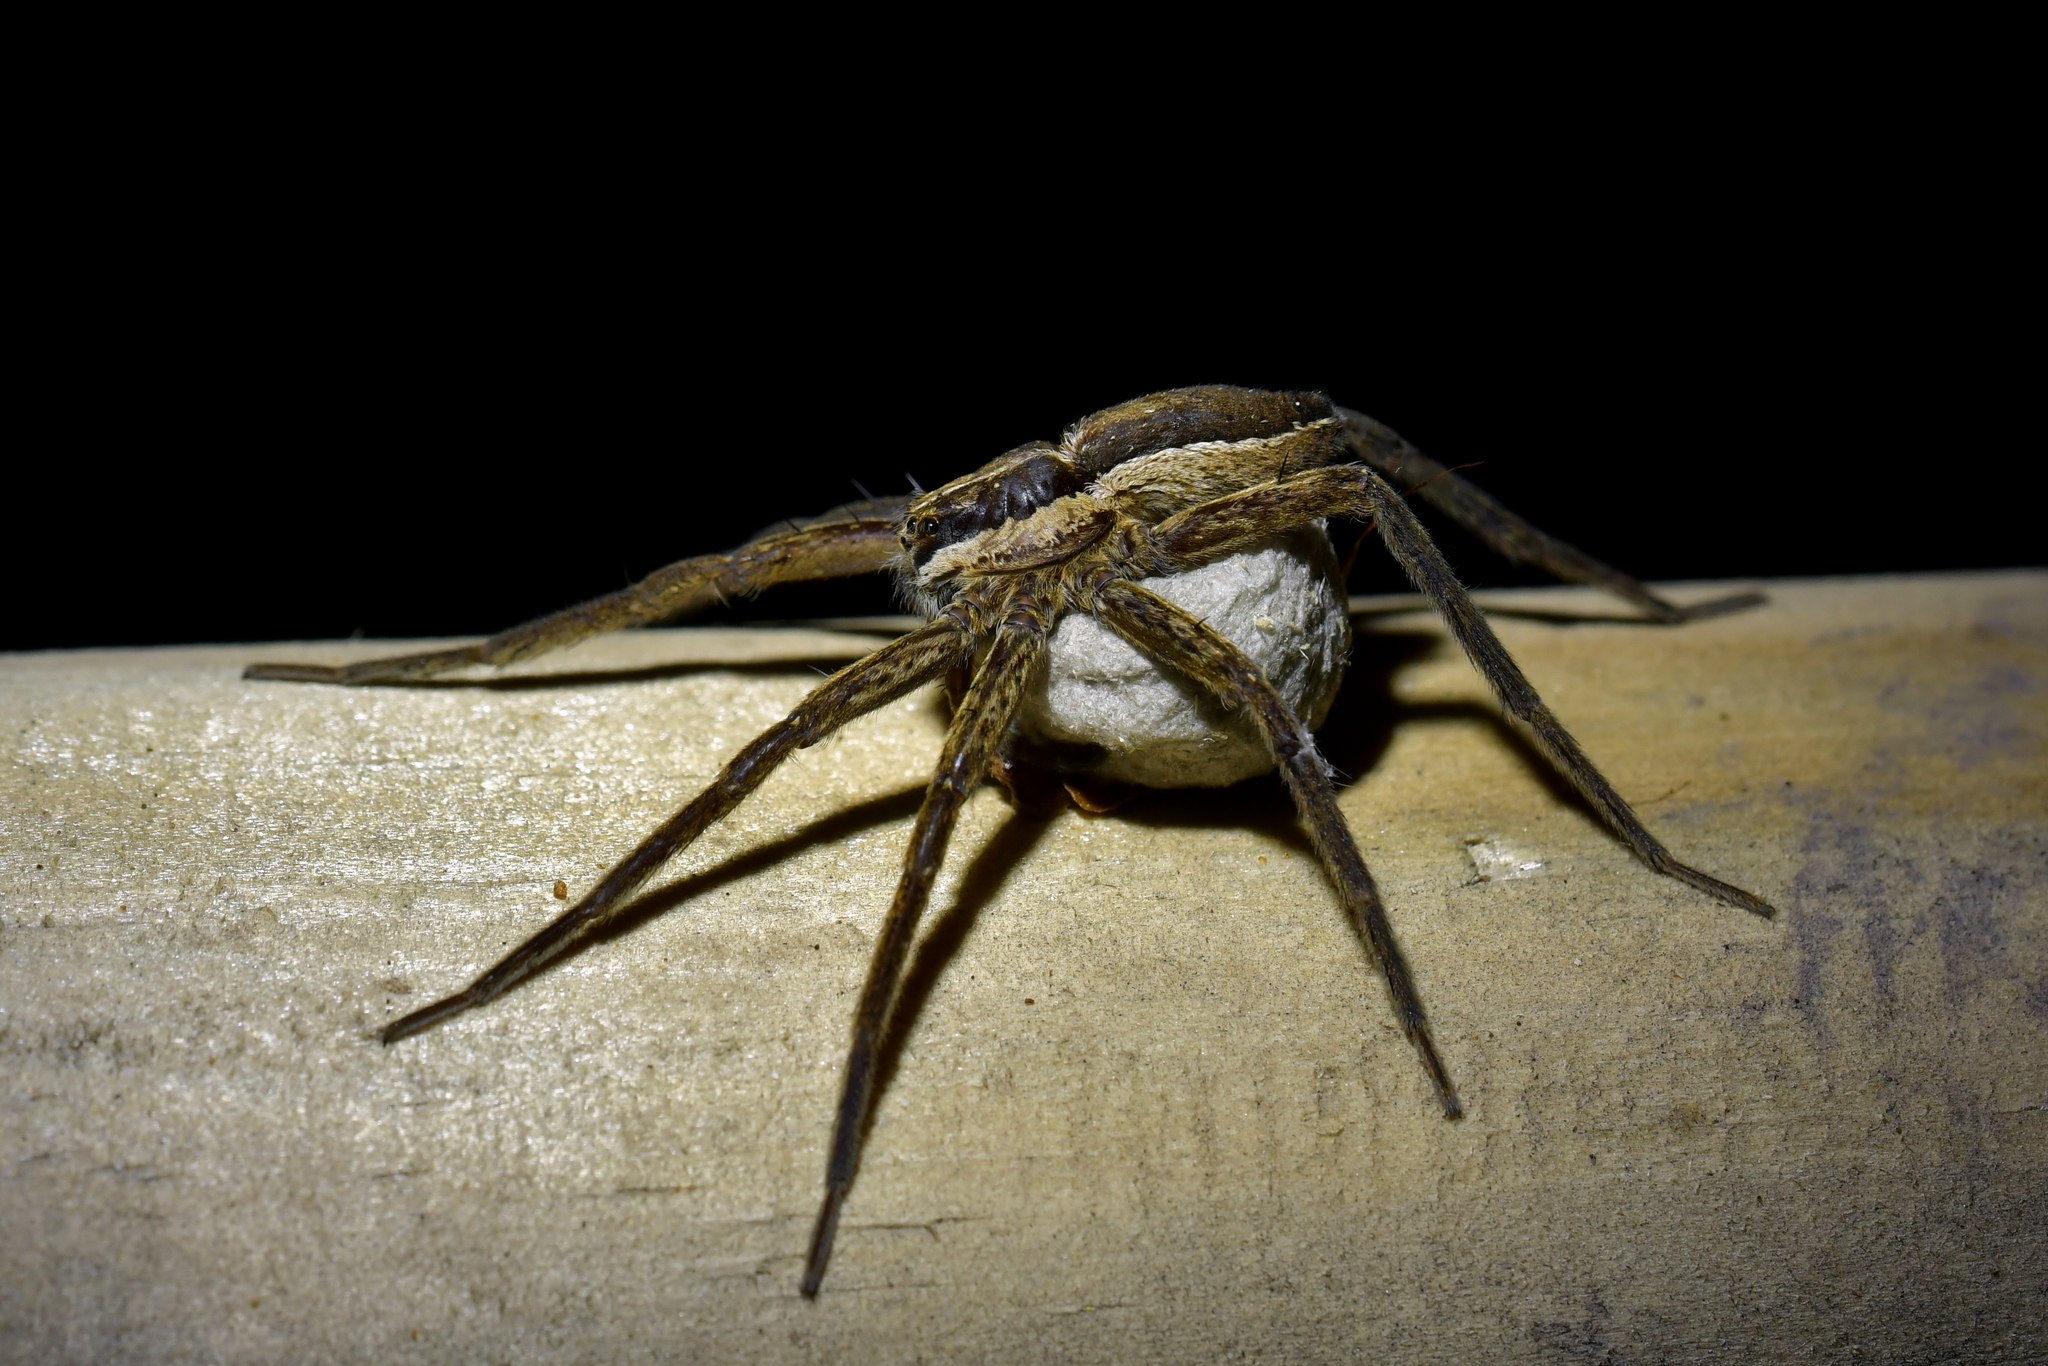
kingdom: Animalia
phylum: Arthropoda
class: Arachnida
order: Araneae
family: Pisauridae
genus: Dolomedes
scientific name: Dolomedes minor
